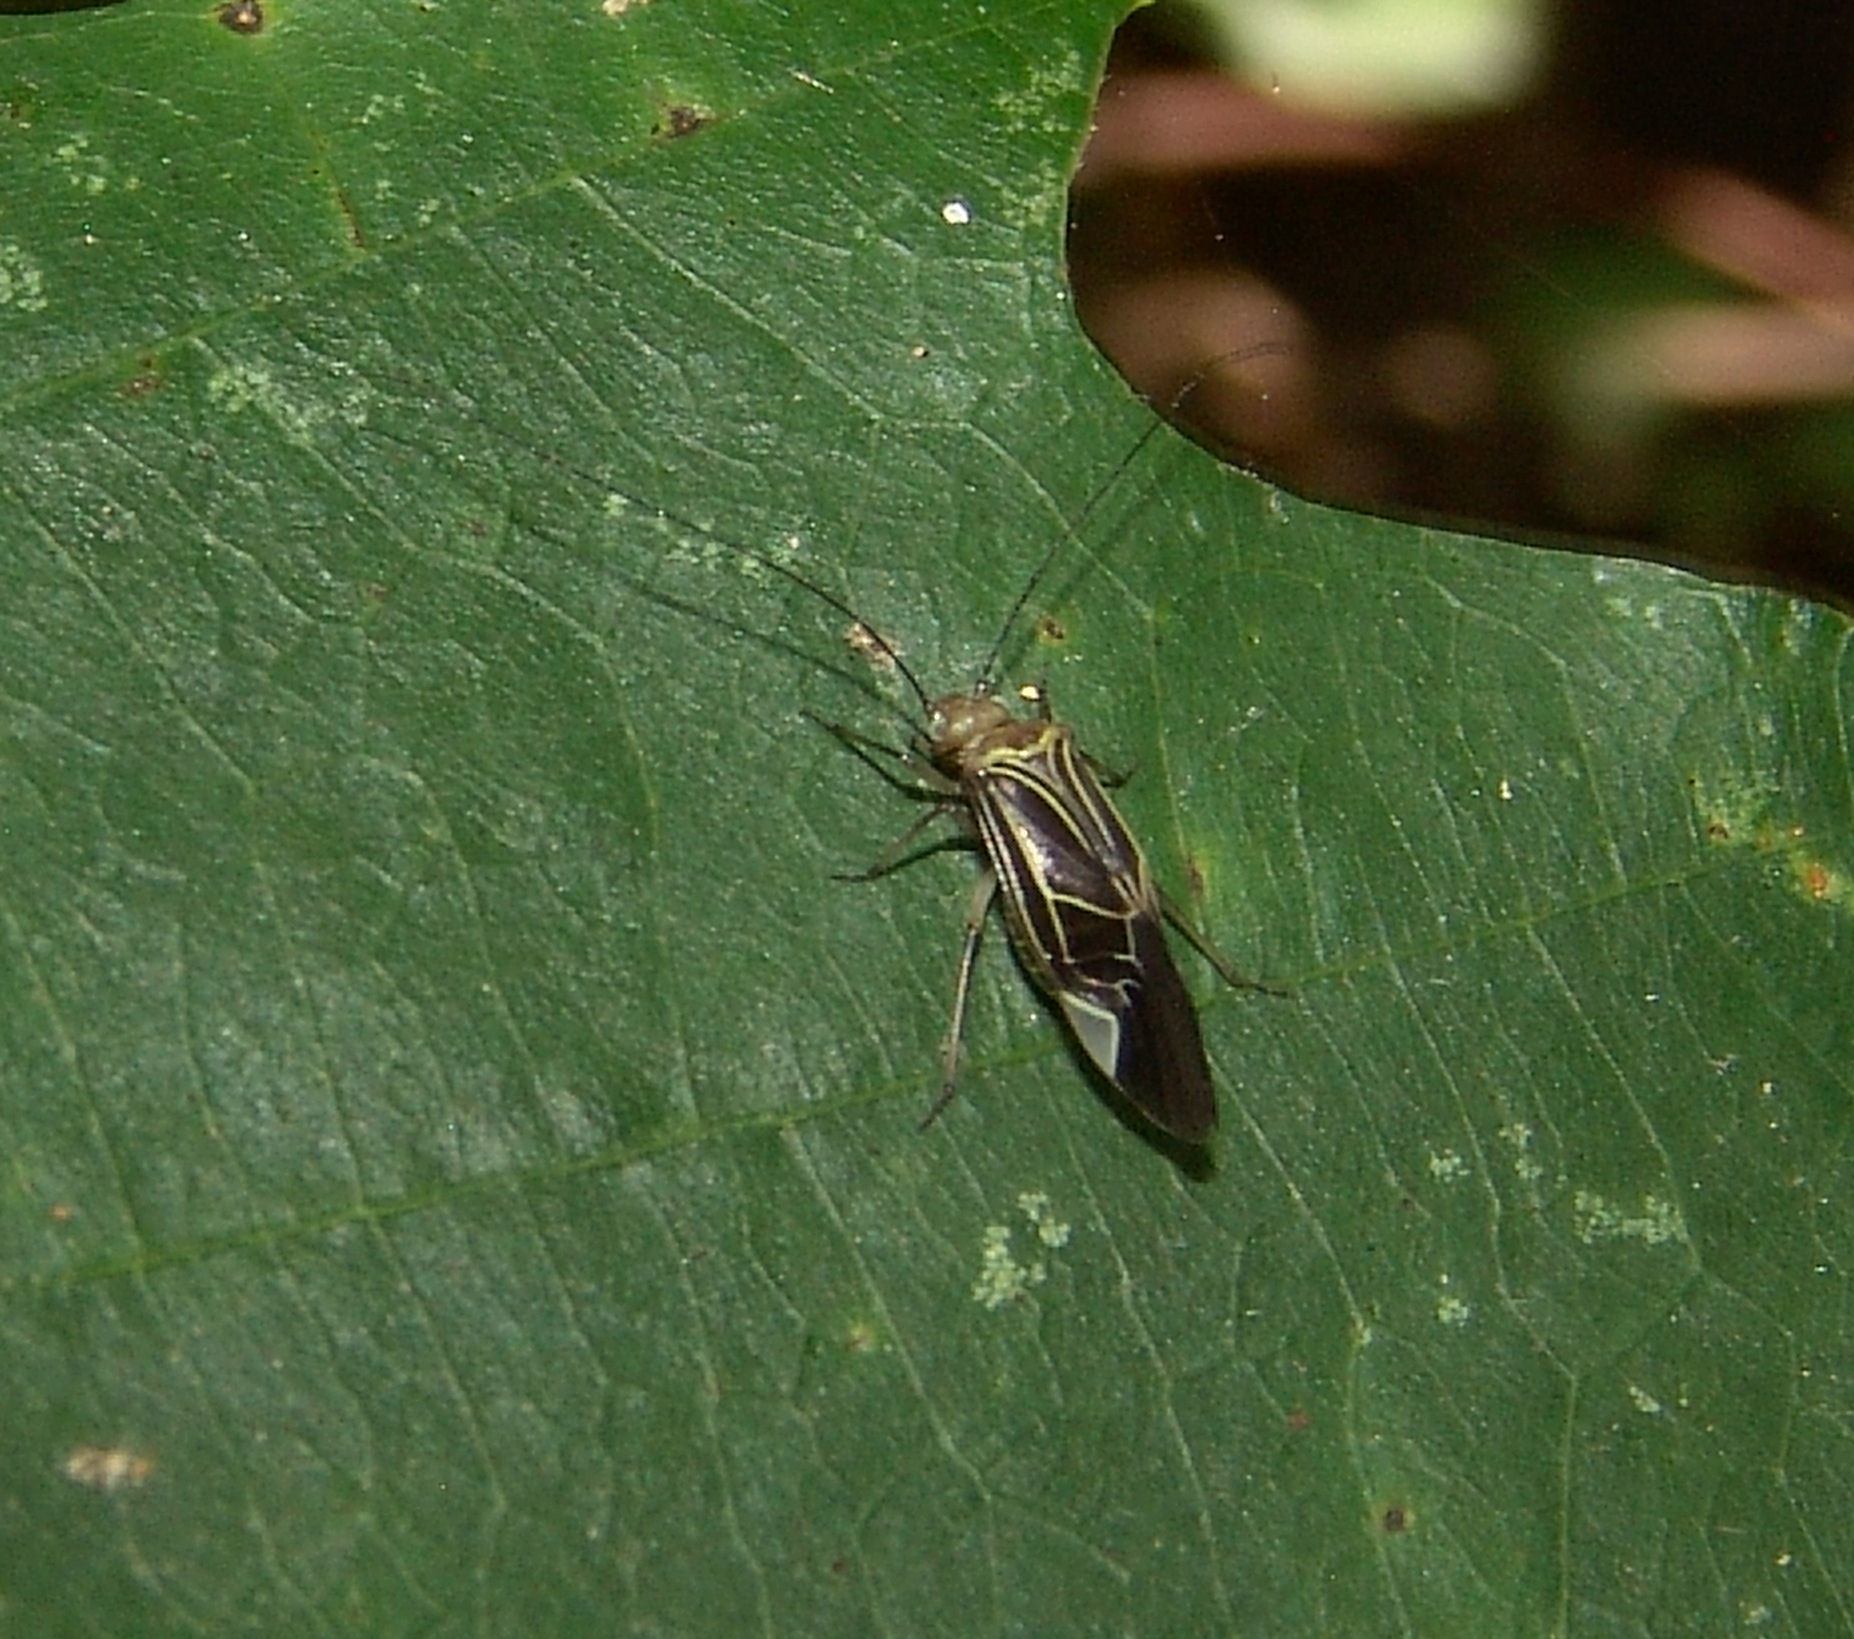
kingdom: Animalia
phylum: Arthropoda
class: Insecta
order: Psocodea
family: Psocidae
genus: Cerastipsocus
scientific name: Cerastipsocus venosus
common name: Tree cattle
